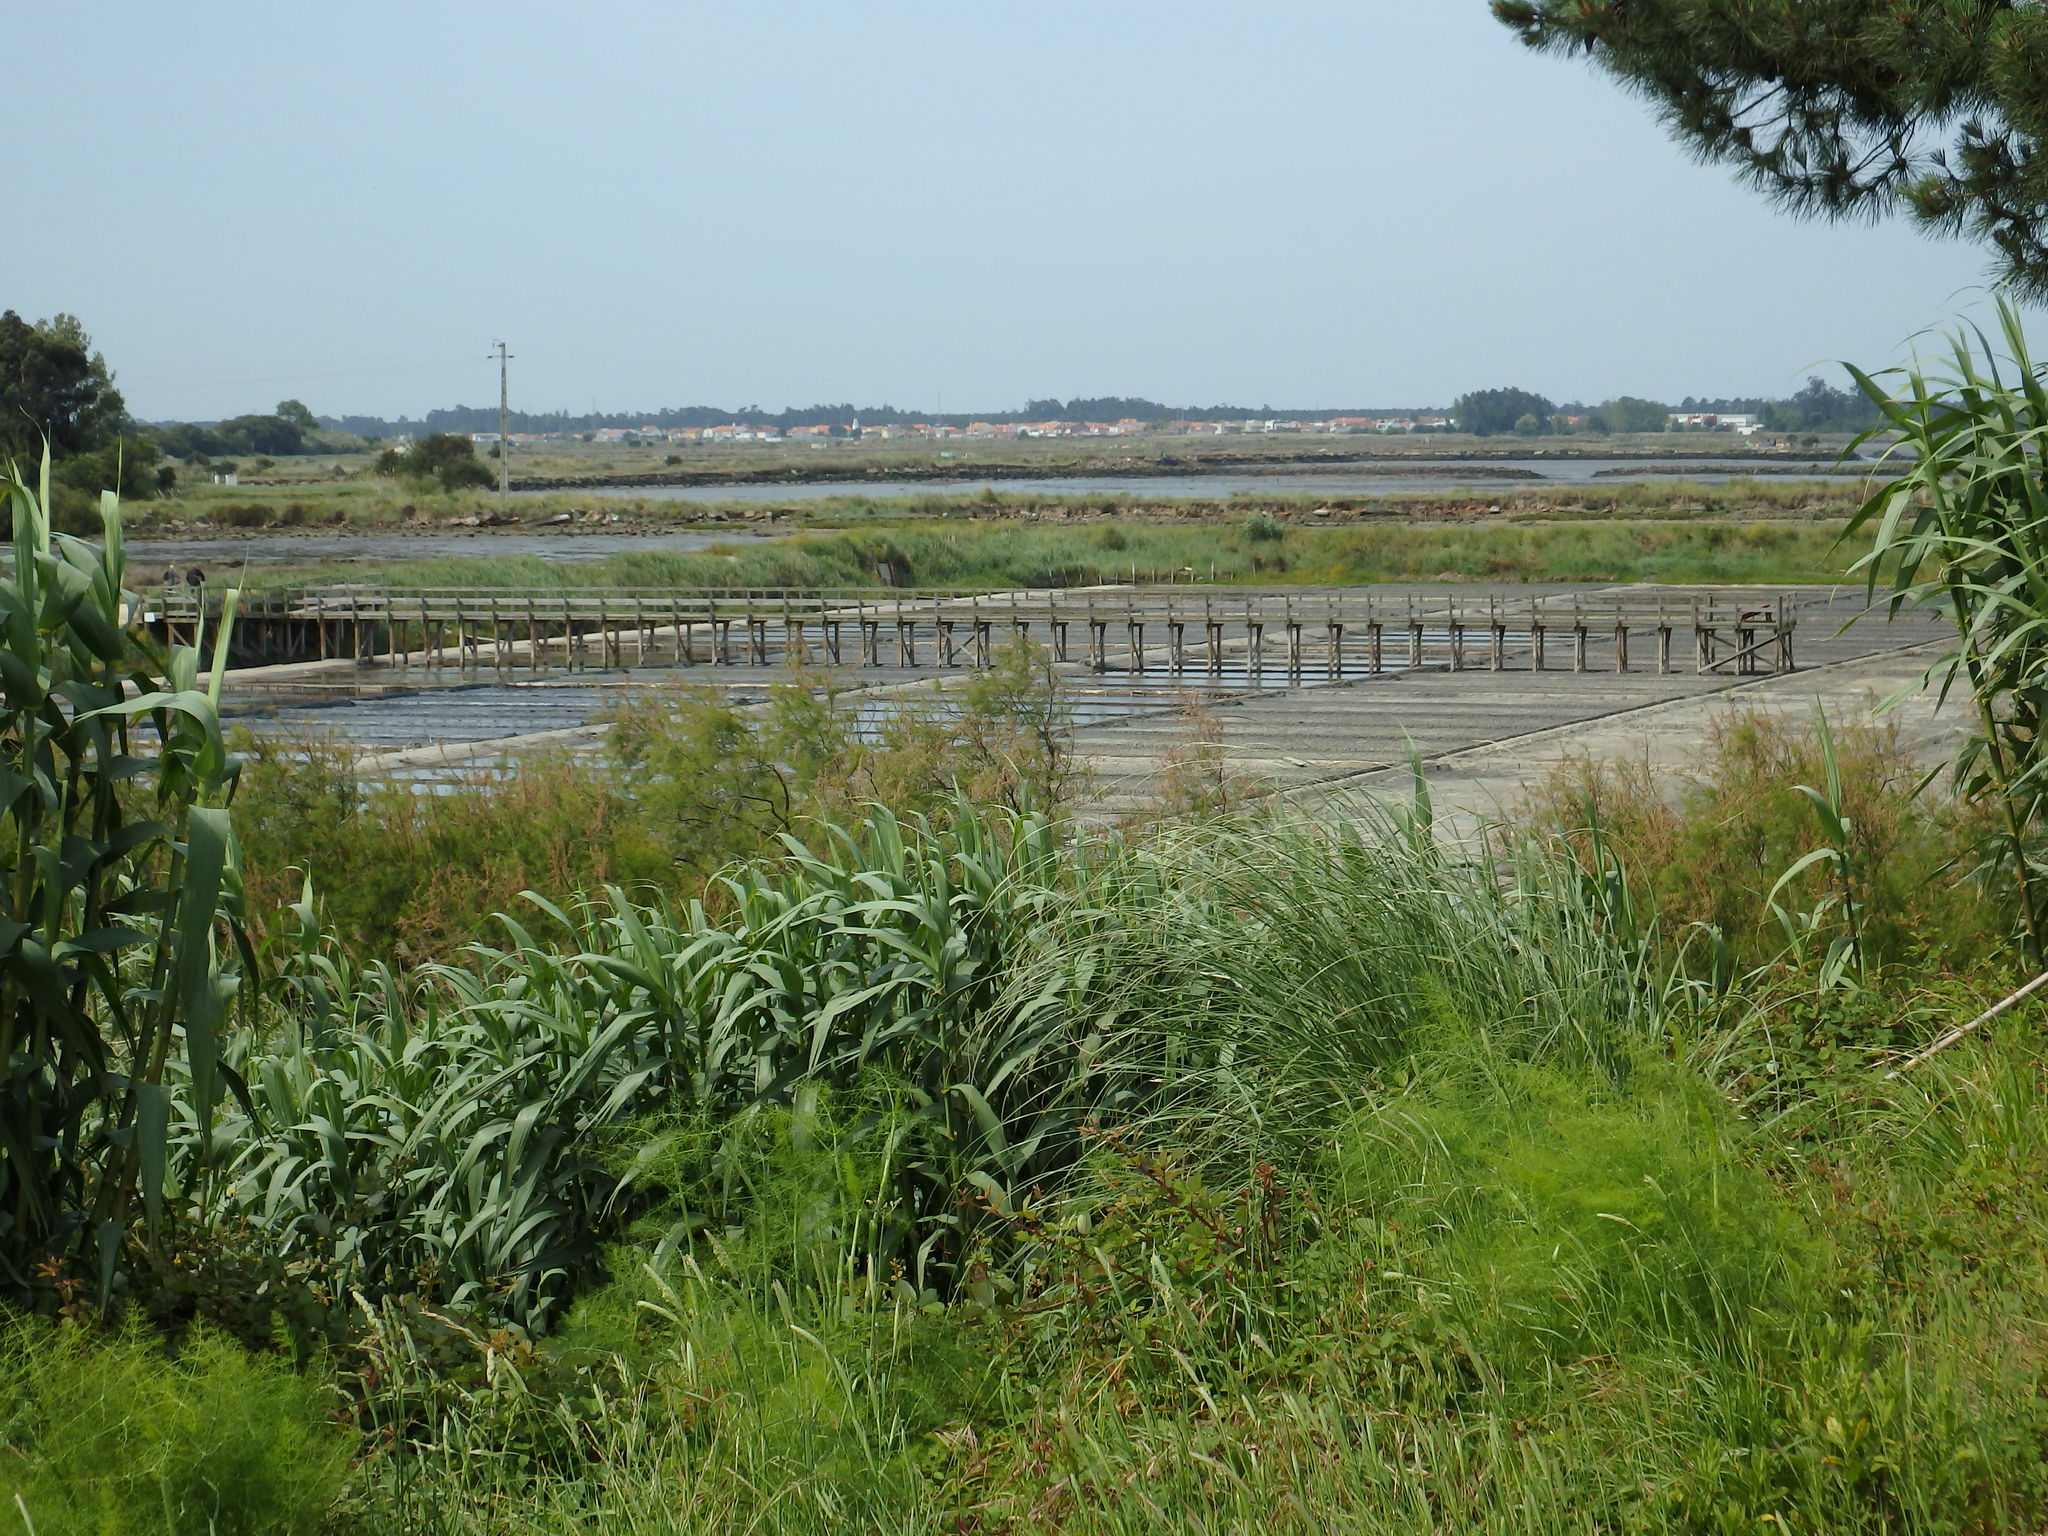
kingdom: Plantae
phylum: Tracheophyta
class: Liliopsida
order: Poales
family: Poaceae
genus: Arundo
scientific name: Arundo donax
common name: Giant reed
